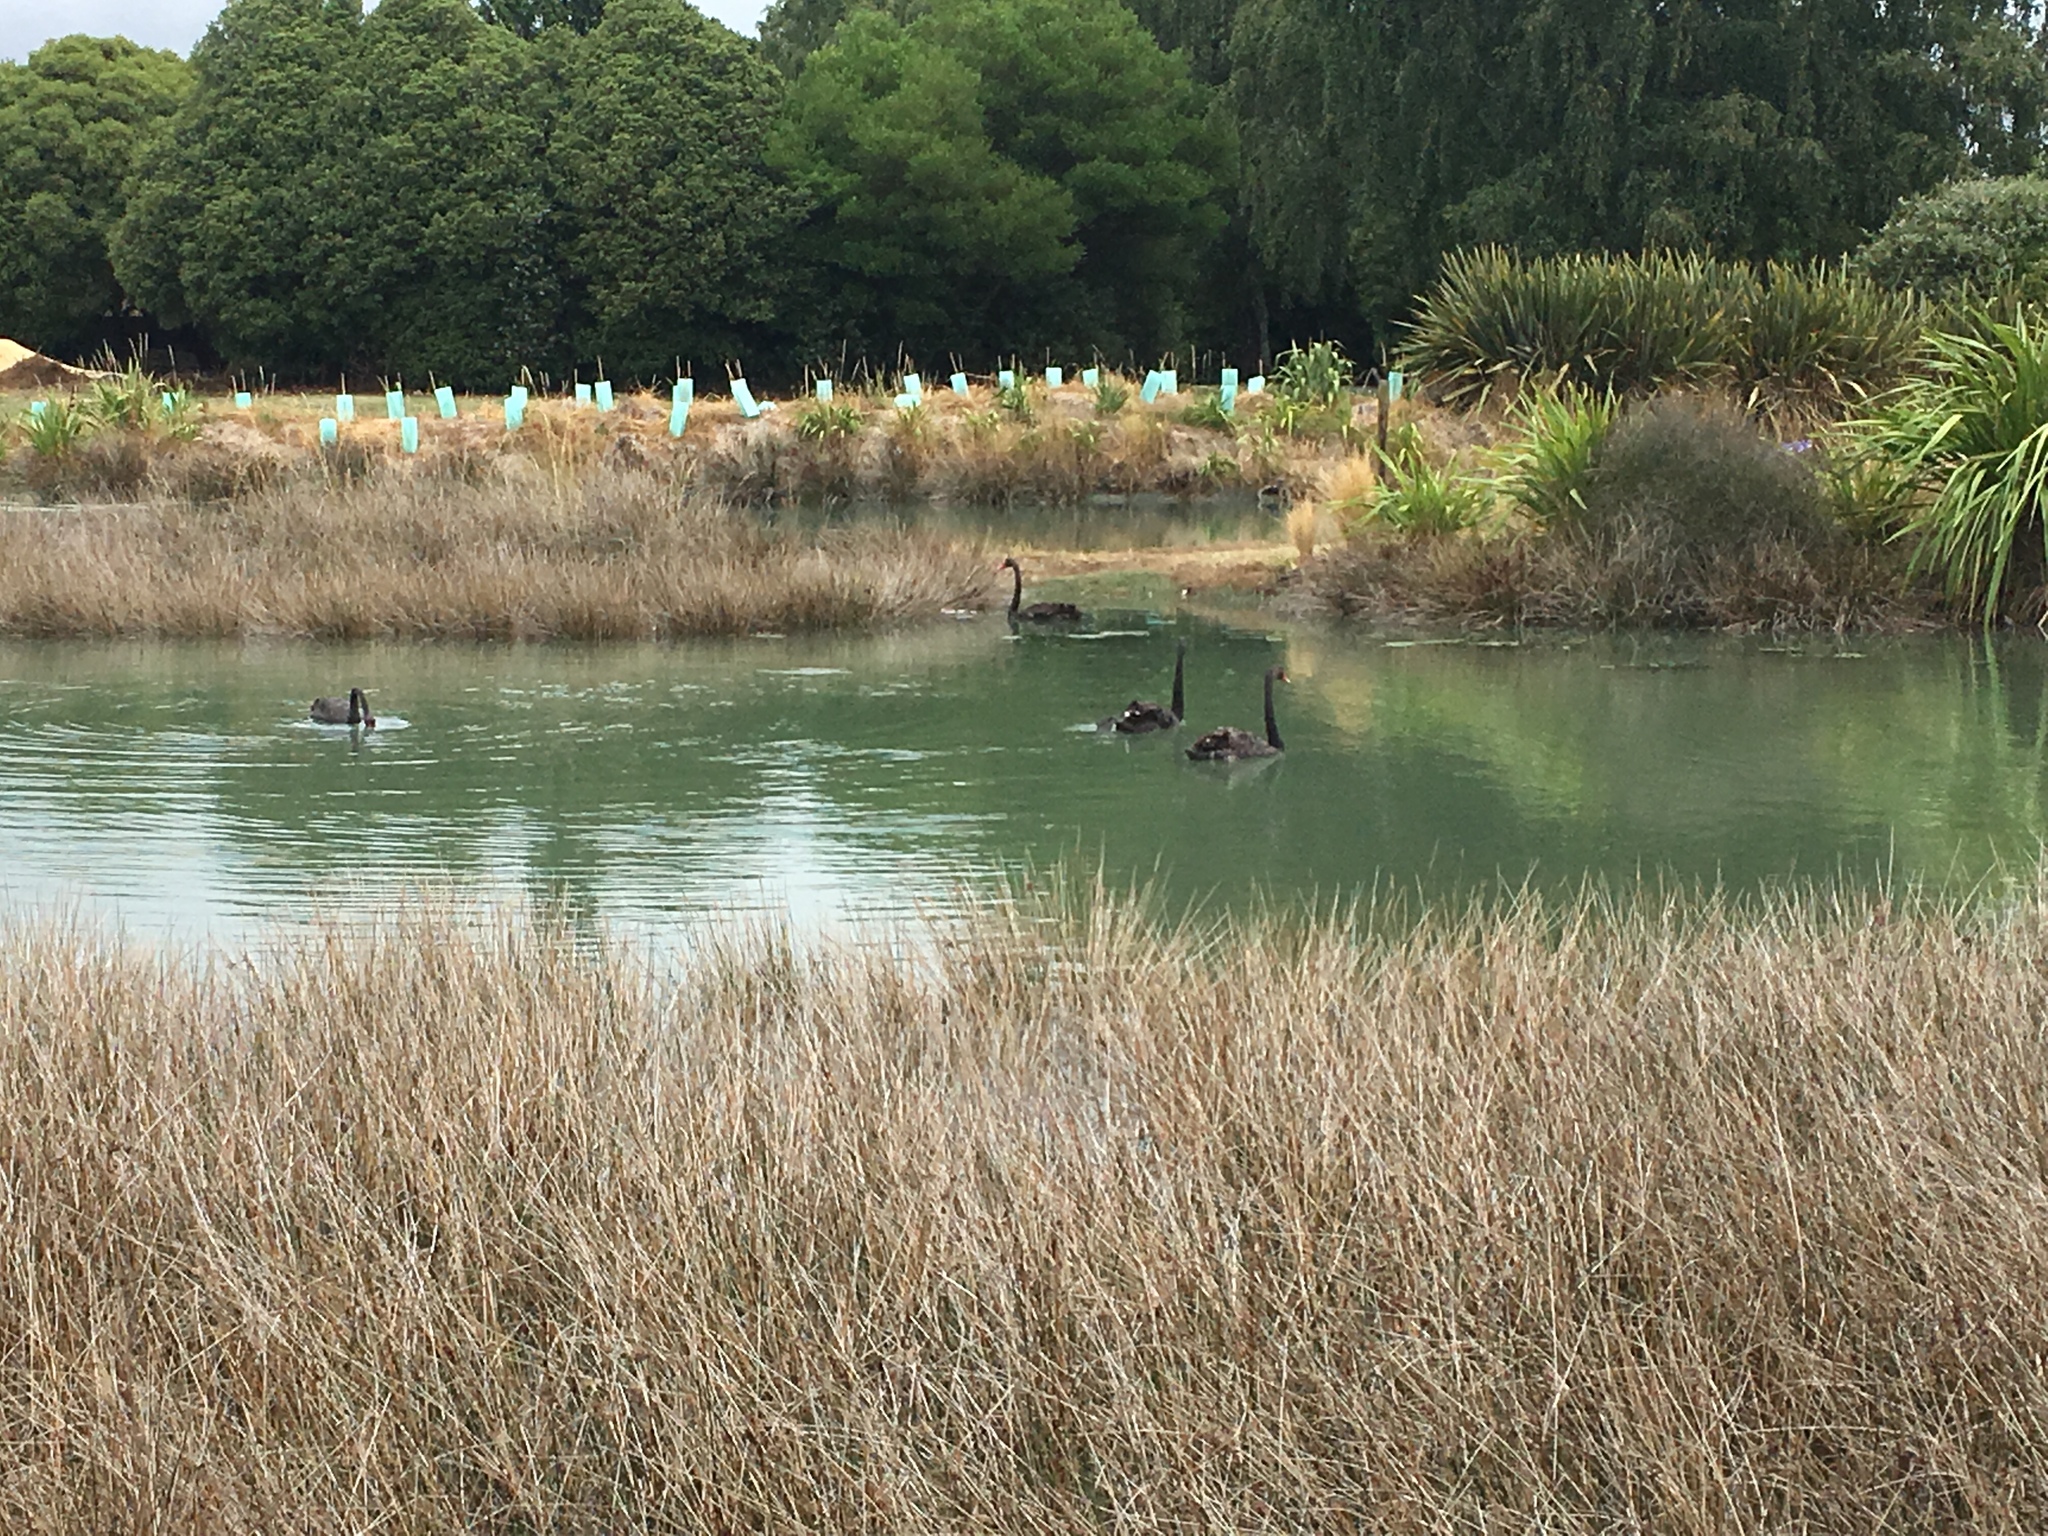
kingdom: Animalia
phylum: Chordata
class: Aves
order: Anseriformes
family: Anatidae
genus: Cygnus
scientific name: Cygnus atratus
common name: Black swan
